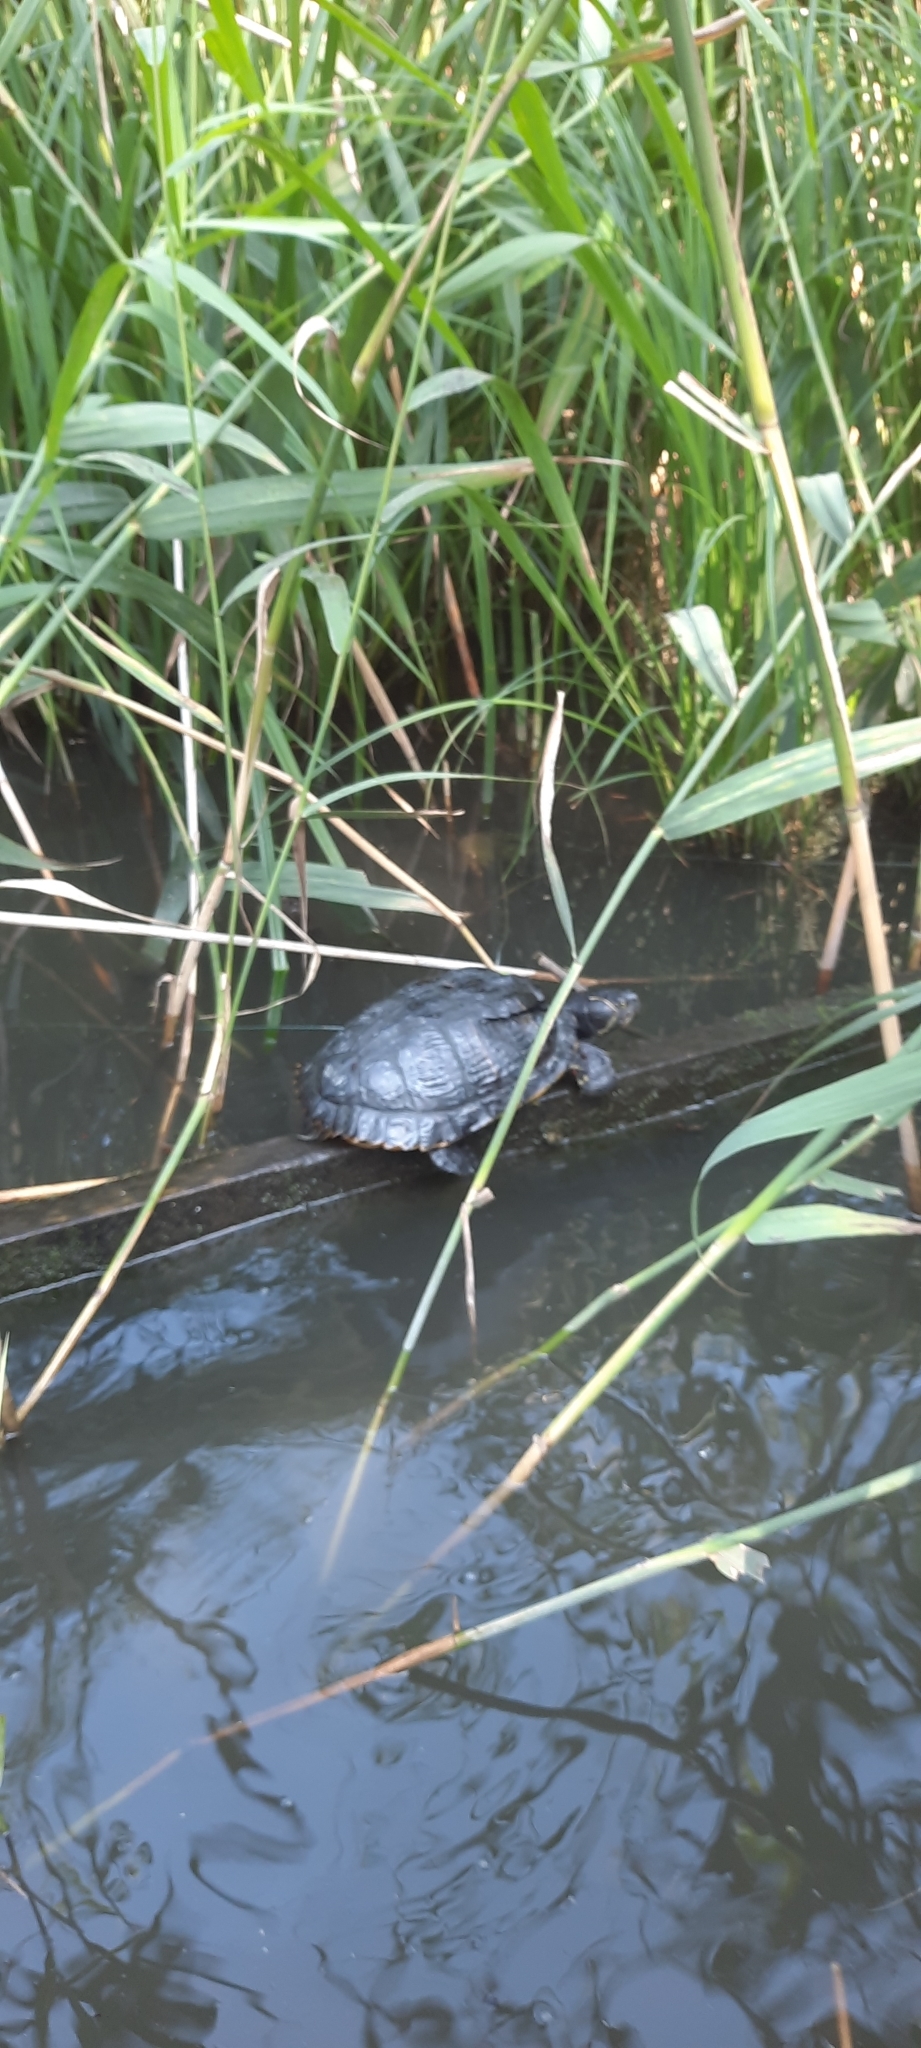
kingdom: Animalia
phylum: Chordata
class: Testudines
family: Emydidae
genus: Trachemys
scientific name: Trachemys scripta
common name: Slider
